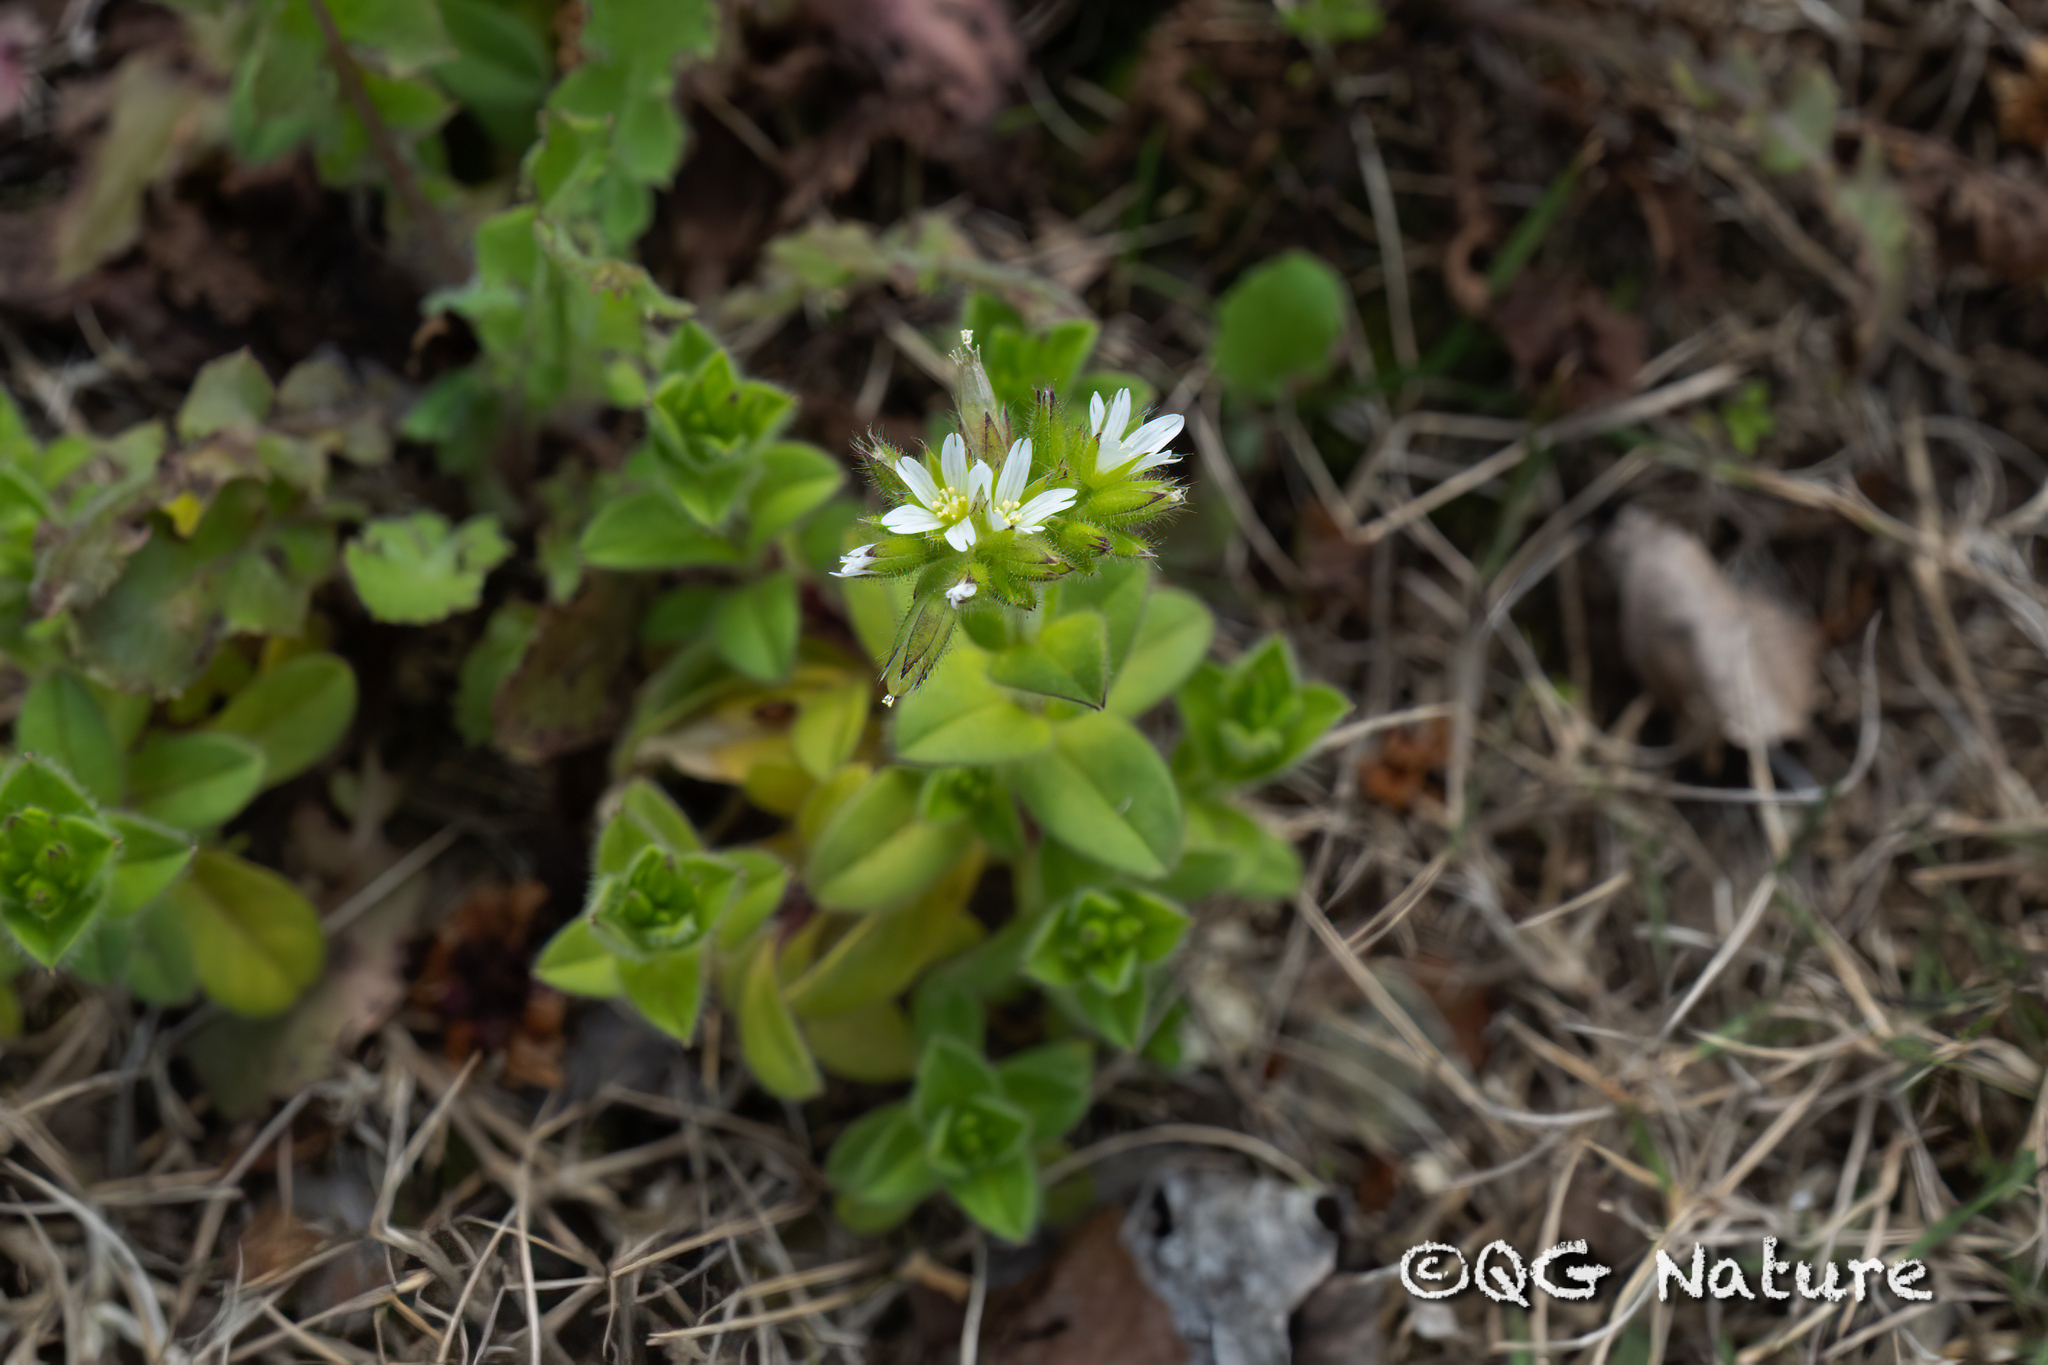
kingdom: Plantae
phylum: Tracheophyta
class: Magnoliopsida
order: Caryophyllales
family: Caryophyllaceae
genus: Cerastium
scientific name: Cerastium glomeratum
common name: Sticky chickweed
